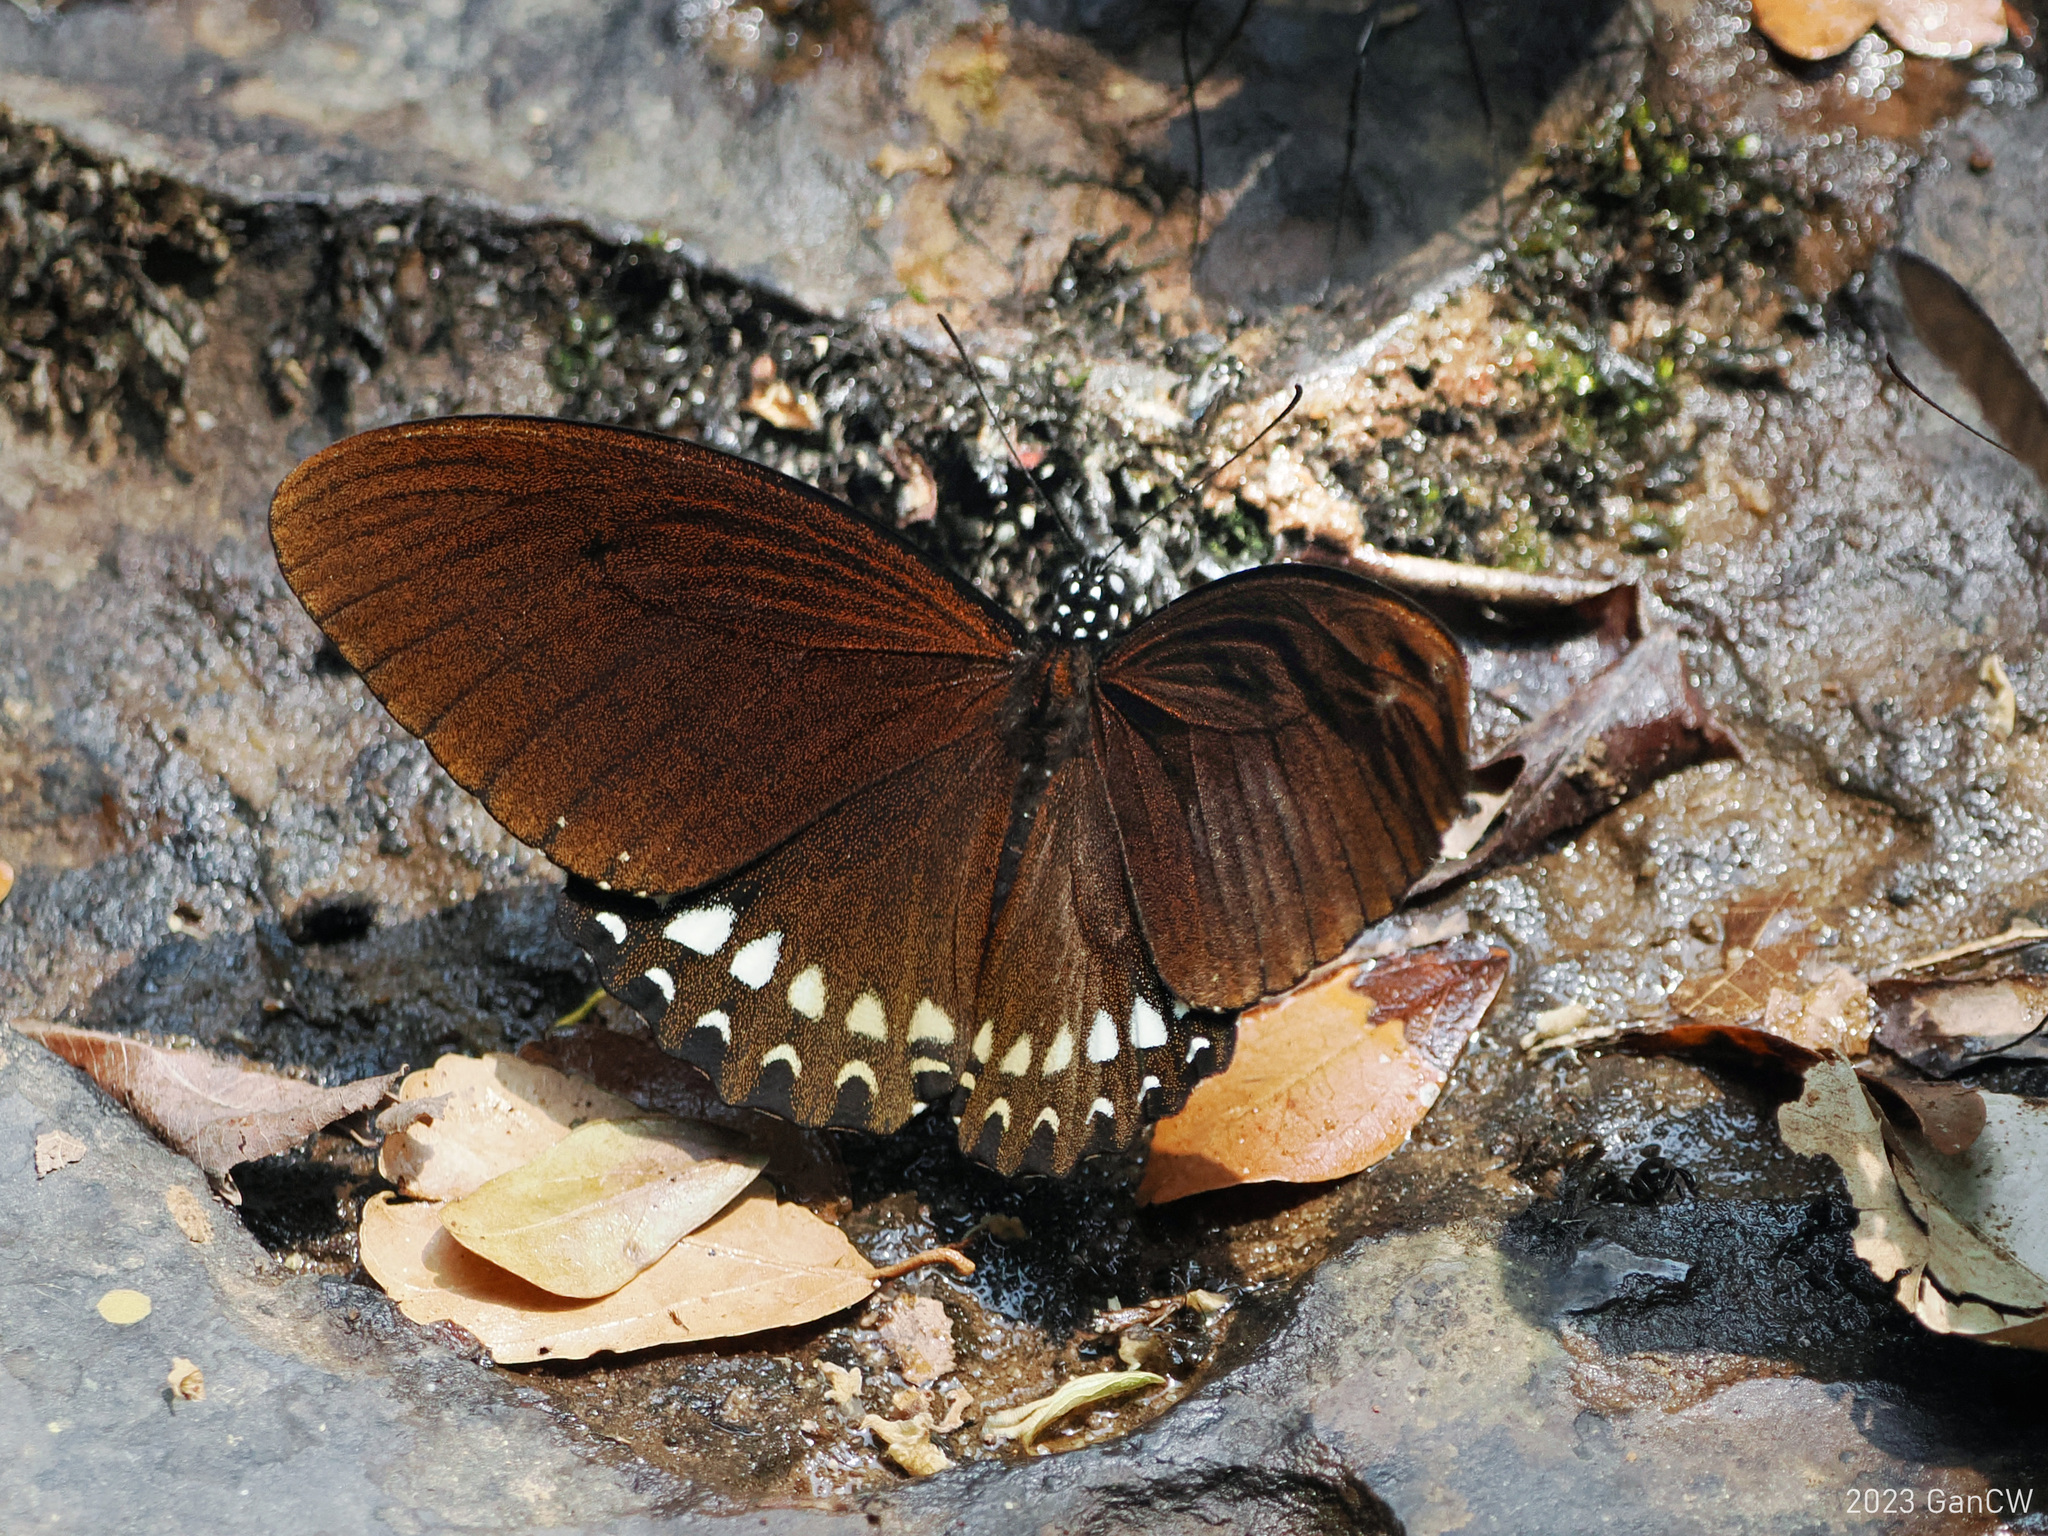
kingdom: Animalia
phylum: Arthropoda
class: Insecta
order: Lepidoptera
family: Papilionidae
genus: Papilio
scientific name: Papilio castor
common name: Common raven
